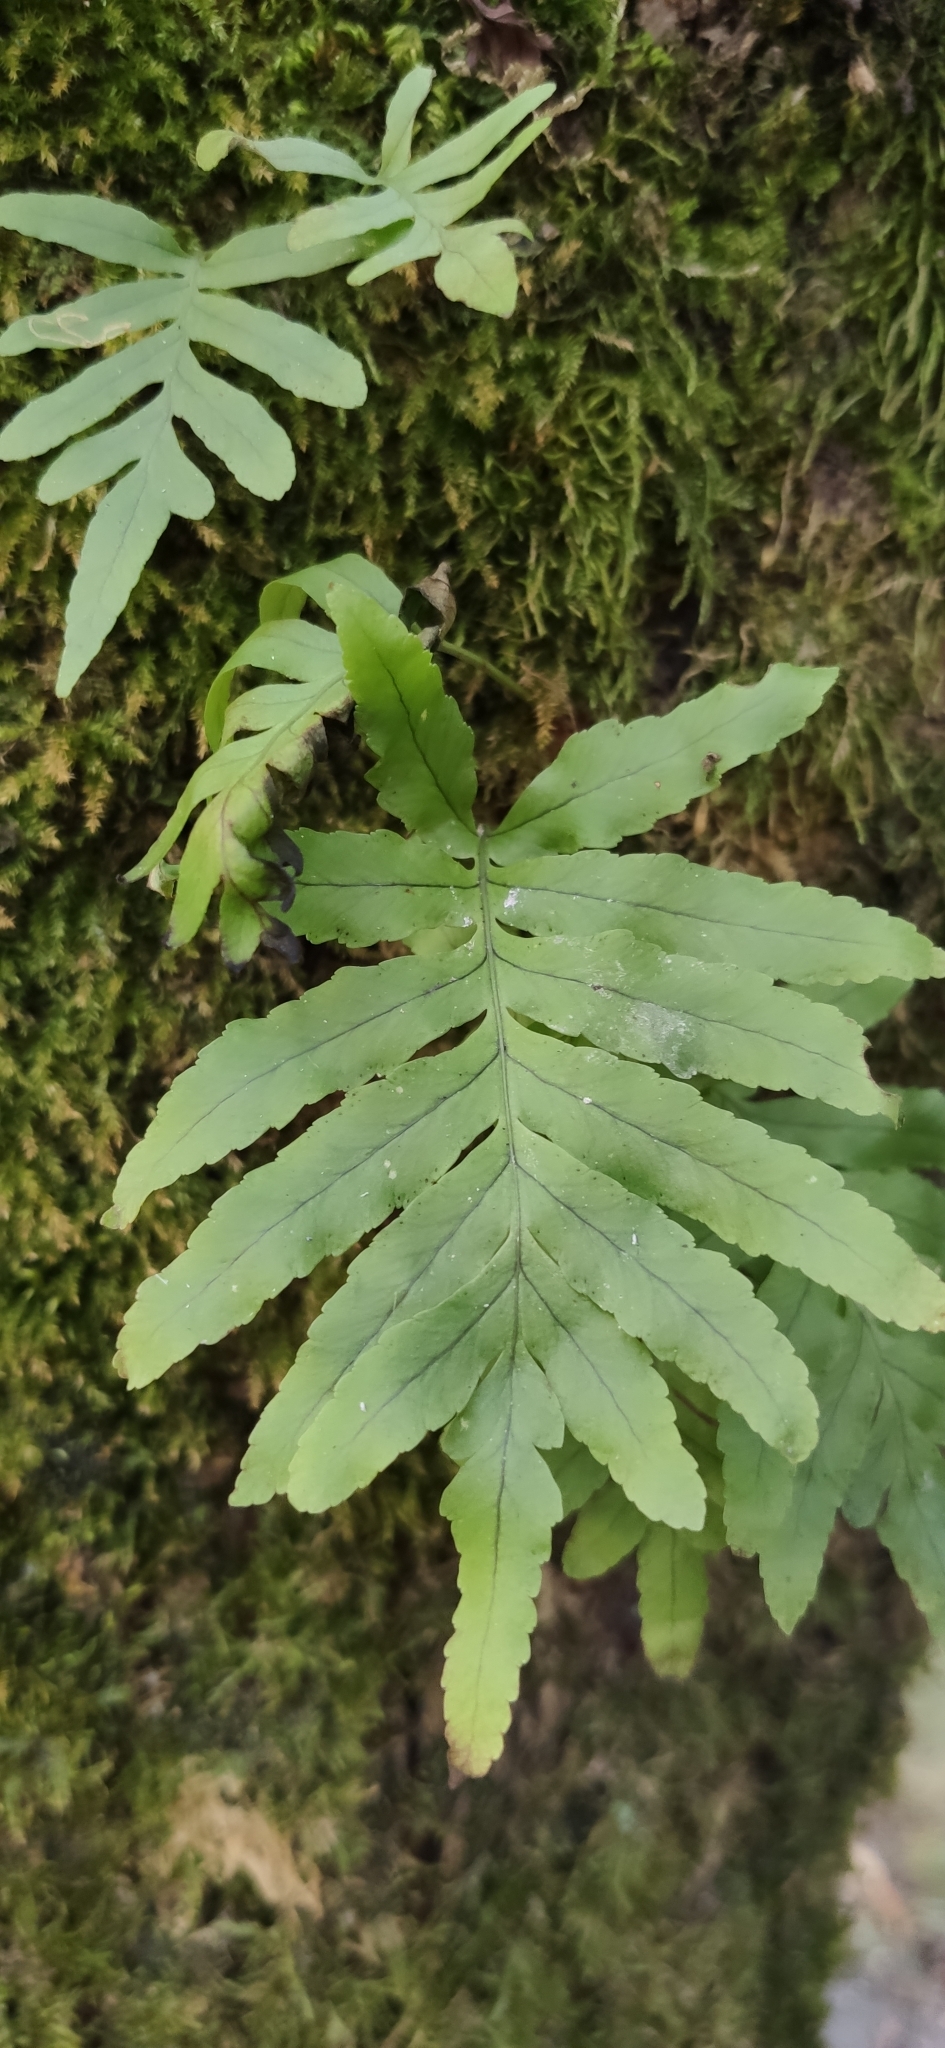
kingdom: Plantae
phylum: Tracheophyta
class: Polypodiopsida
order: Polypodiales
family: Polypodiaceae
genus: Polypodium
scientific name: Polypodium cambricum
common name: Southern polypody
